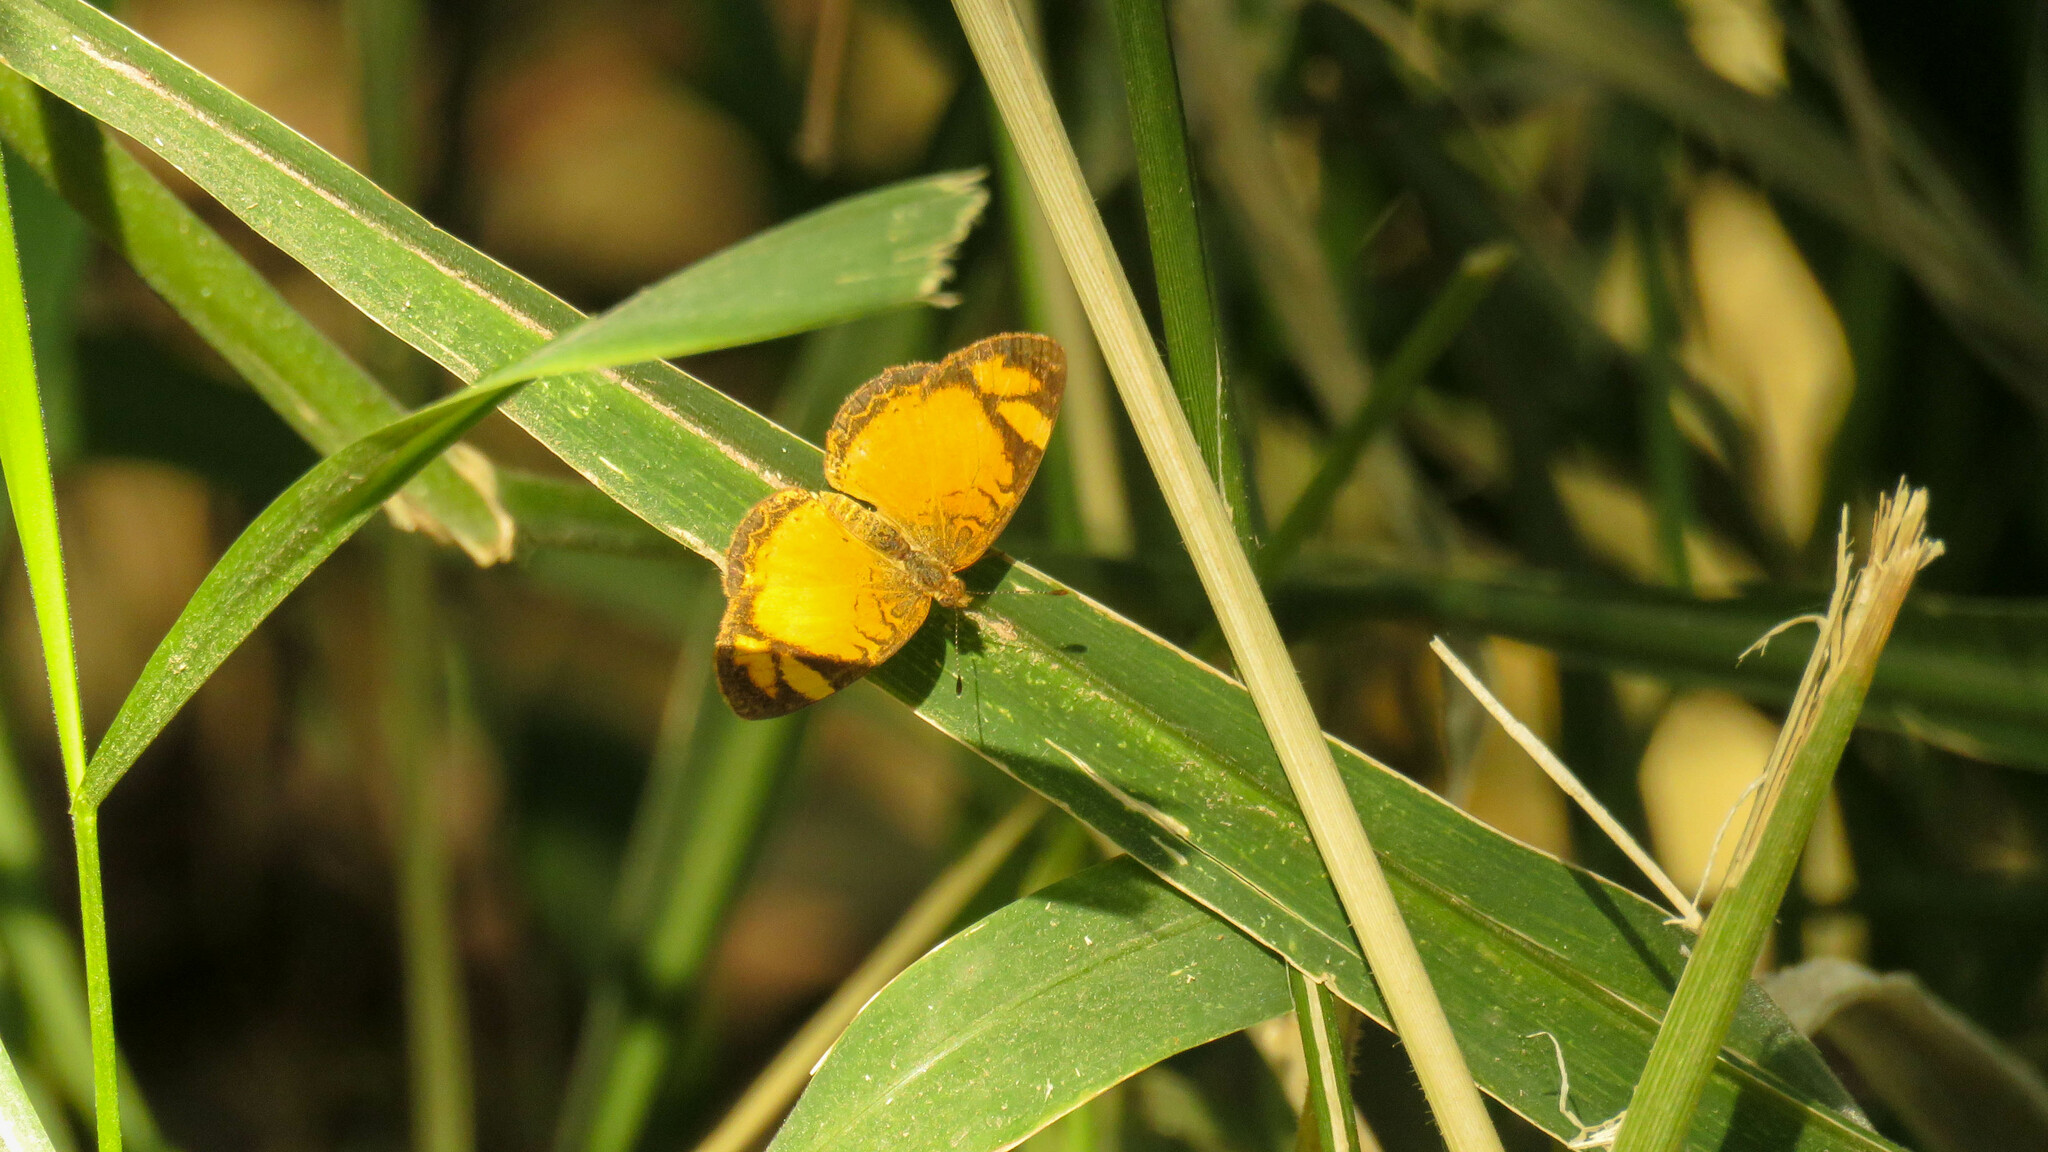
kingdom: Animalia
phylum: Arthropoda
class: Insecta
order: Lepidoptera
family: Nymphalidae
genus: Tegosa
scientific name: Tegosa claudina
